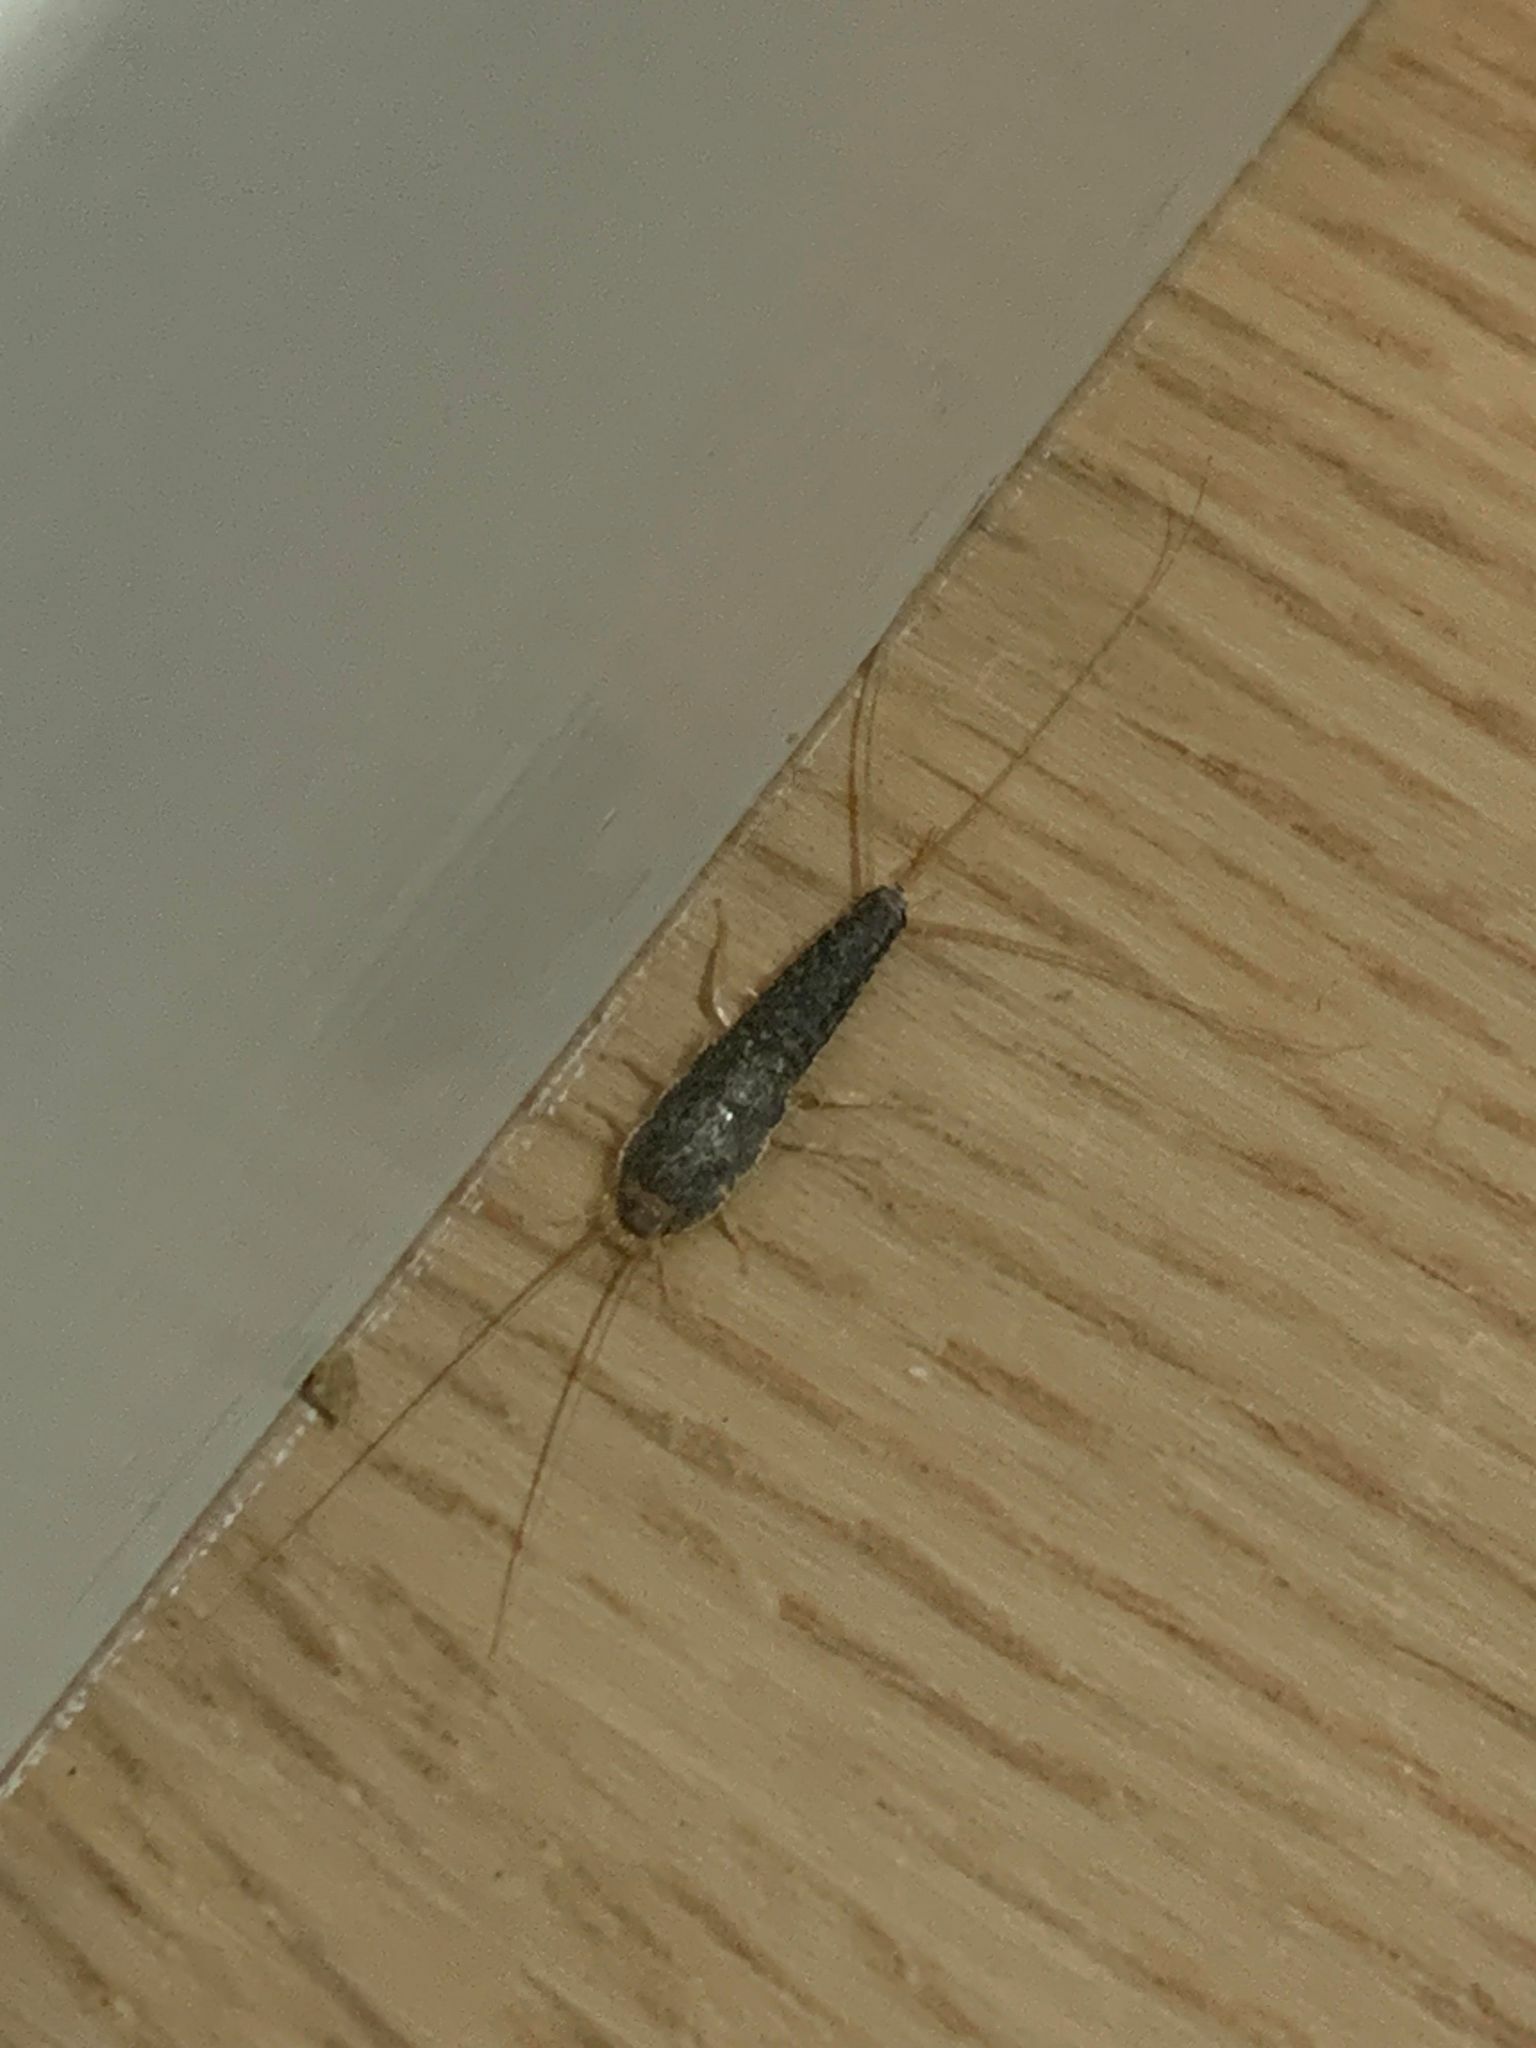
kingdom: Animalia
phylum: Arthropoda
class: Insecta
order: Zygentoma
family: Lepismatidae
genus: Ctenolepisma
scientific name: Ctenolepisma longicaudatum
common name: Silverfish
